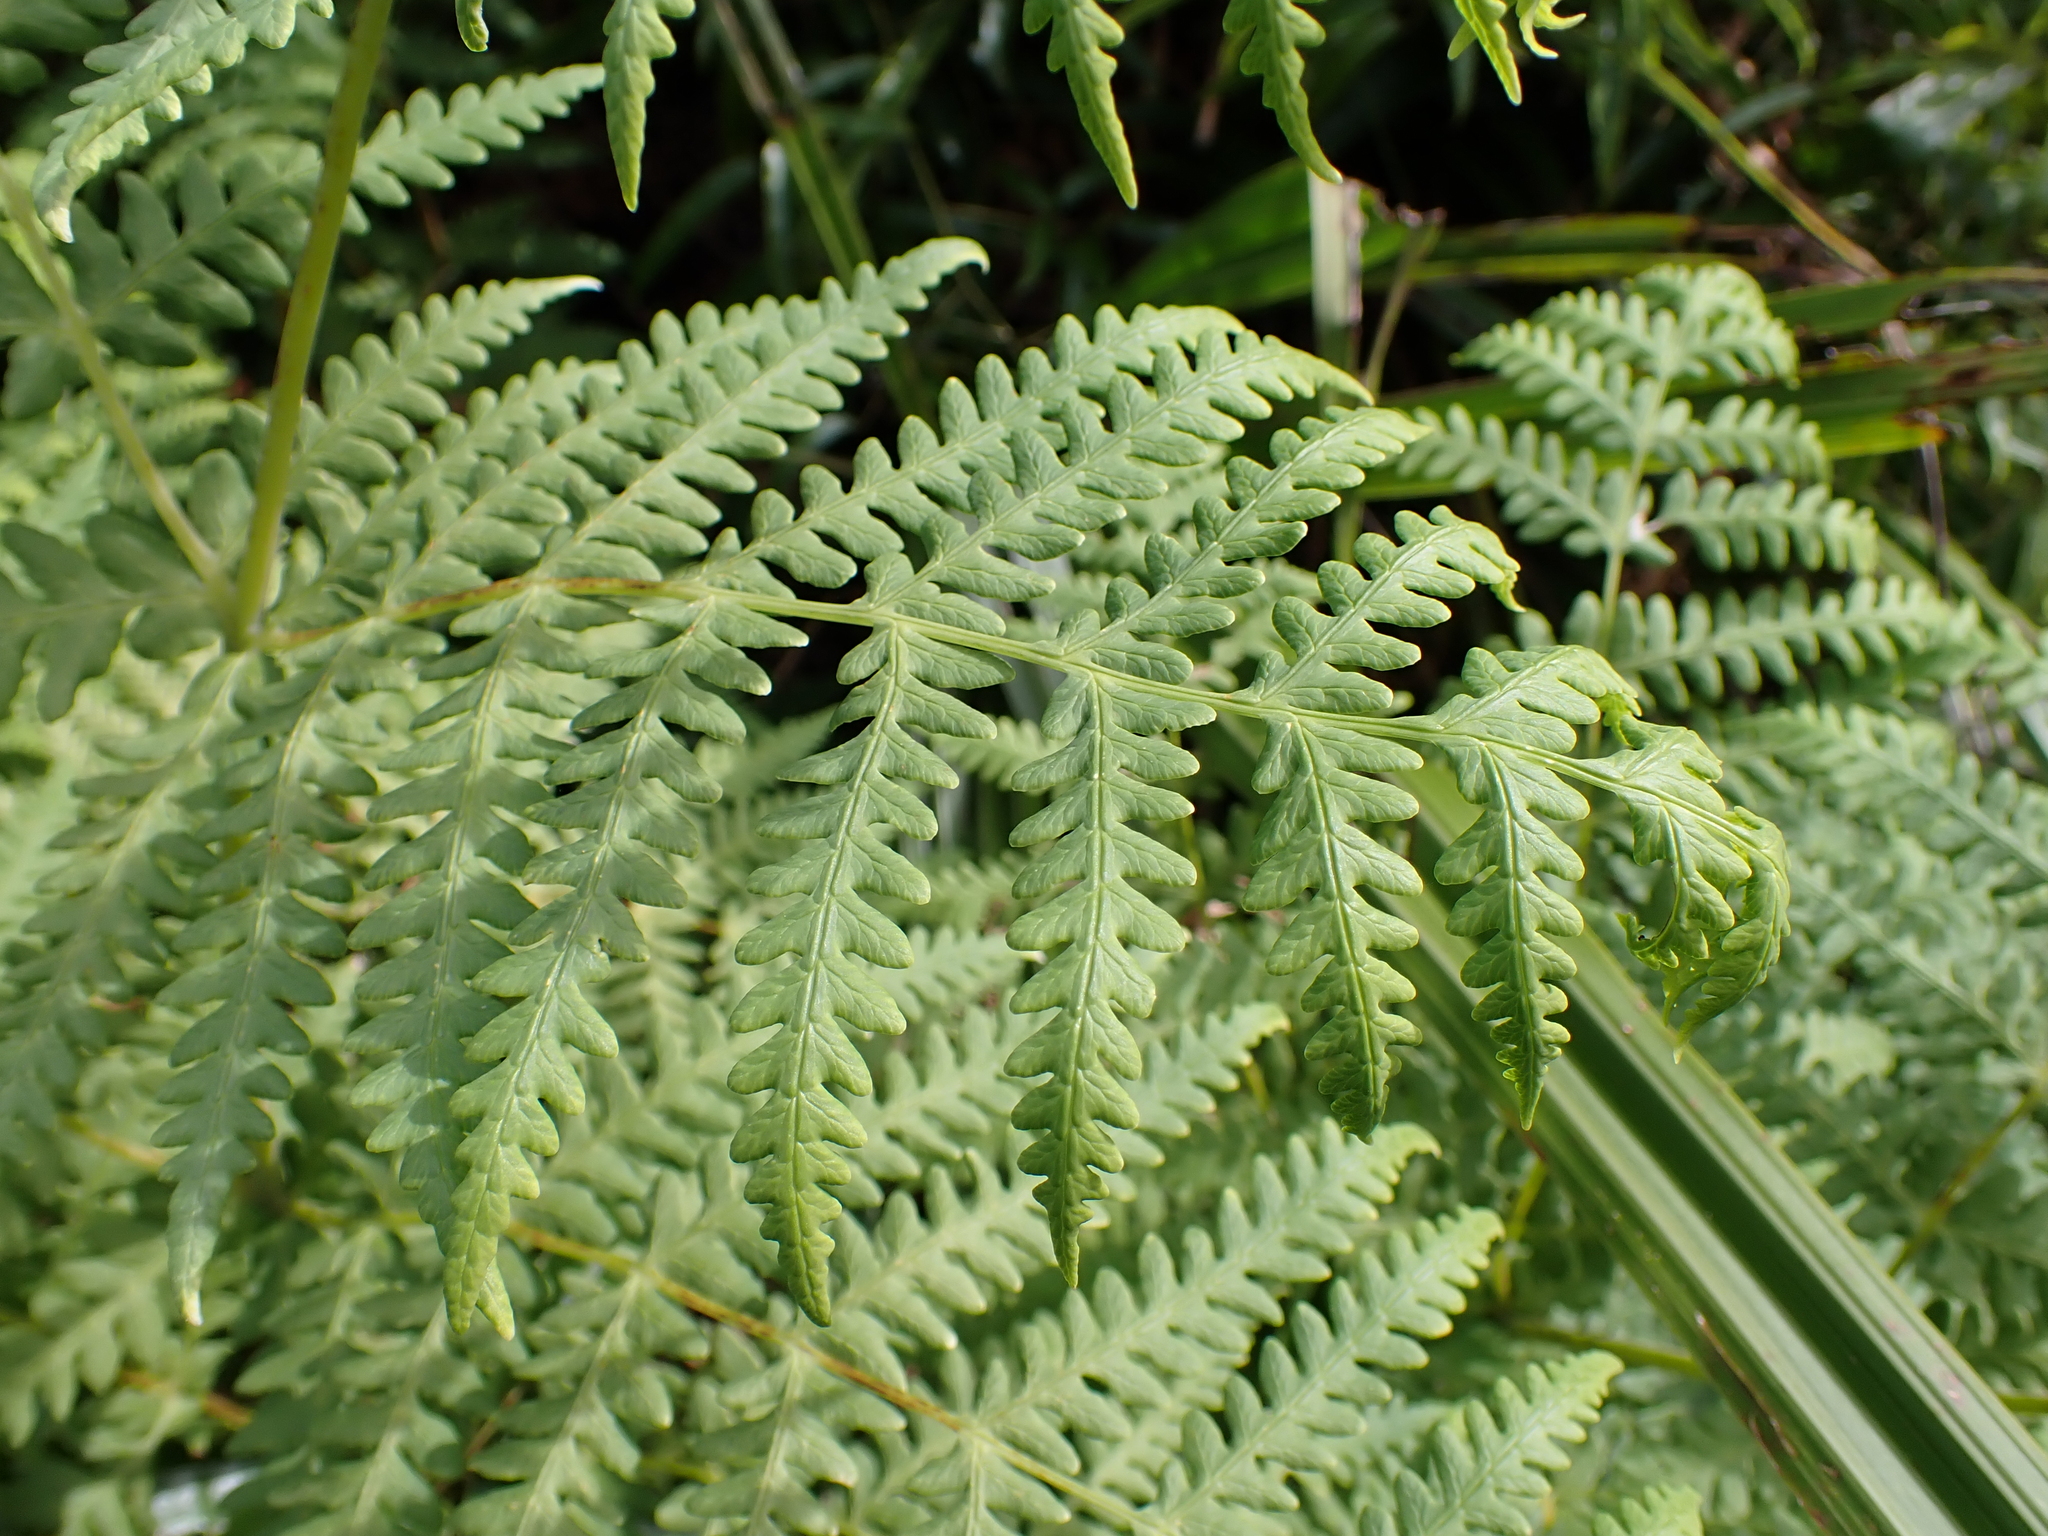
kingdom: Plantae
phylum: Tracheophyta
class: Polypodiopsida
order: Polypodiales
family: Dennstaedtiaceae
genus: Histiopteris
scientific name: Histiopteris incisa
